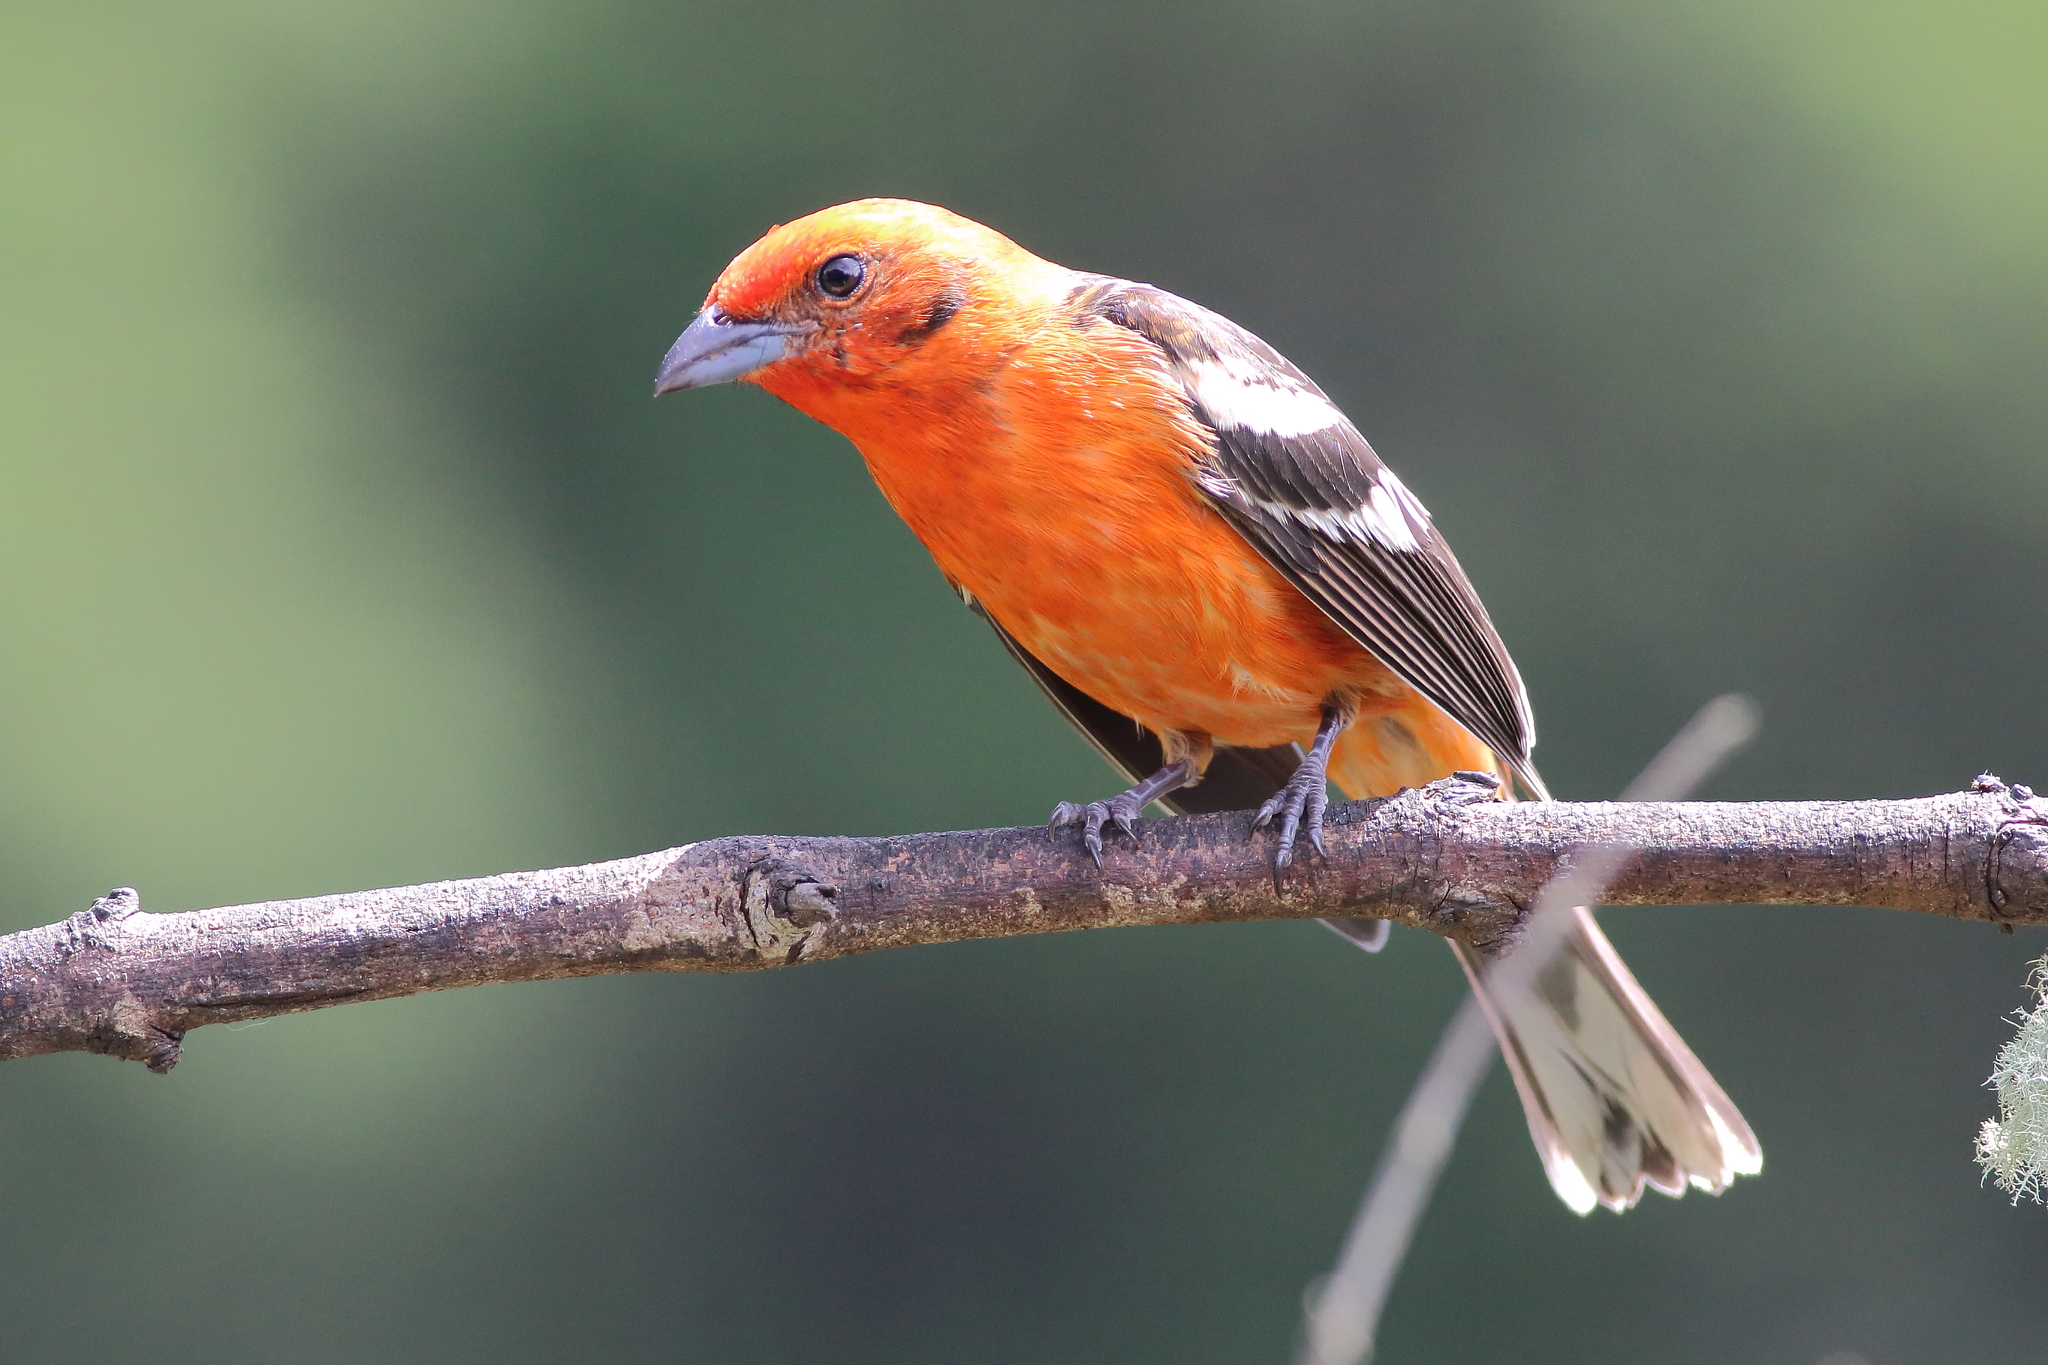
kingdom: Animalia
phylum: Chordata
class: Aves
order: Passeriformes
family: Cardinalidae
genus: Piranga
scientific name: Piranga bidentata
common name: Flame-colored tanager
